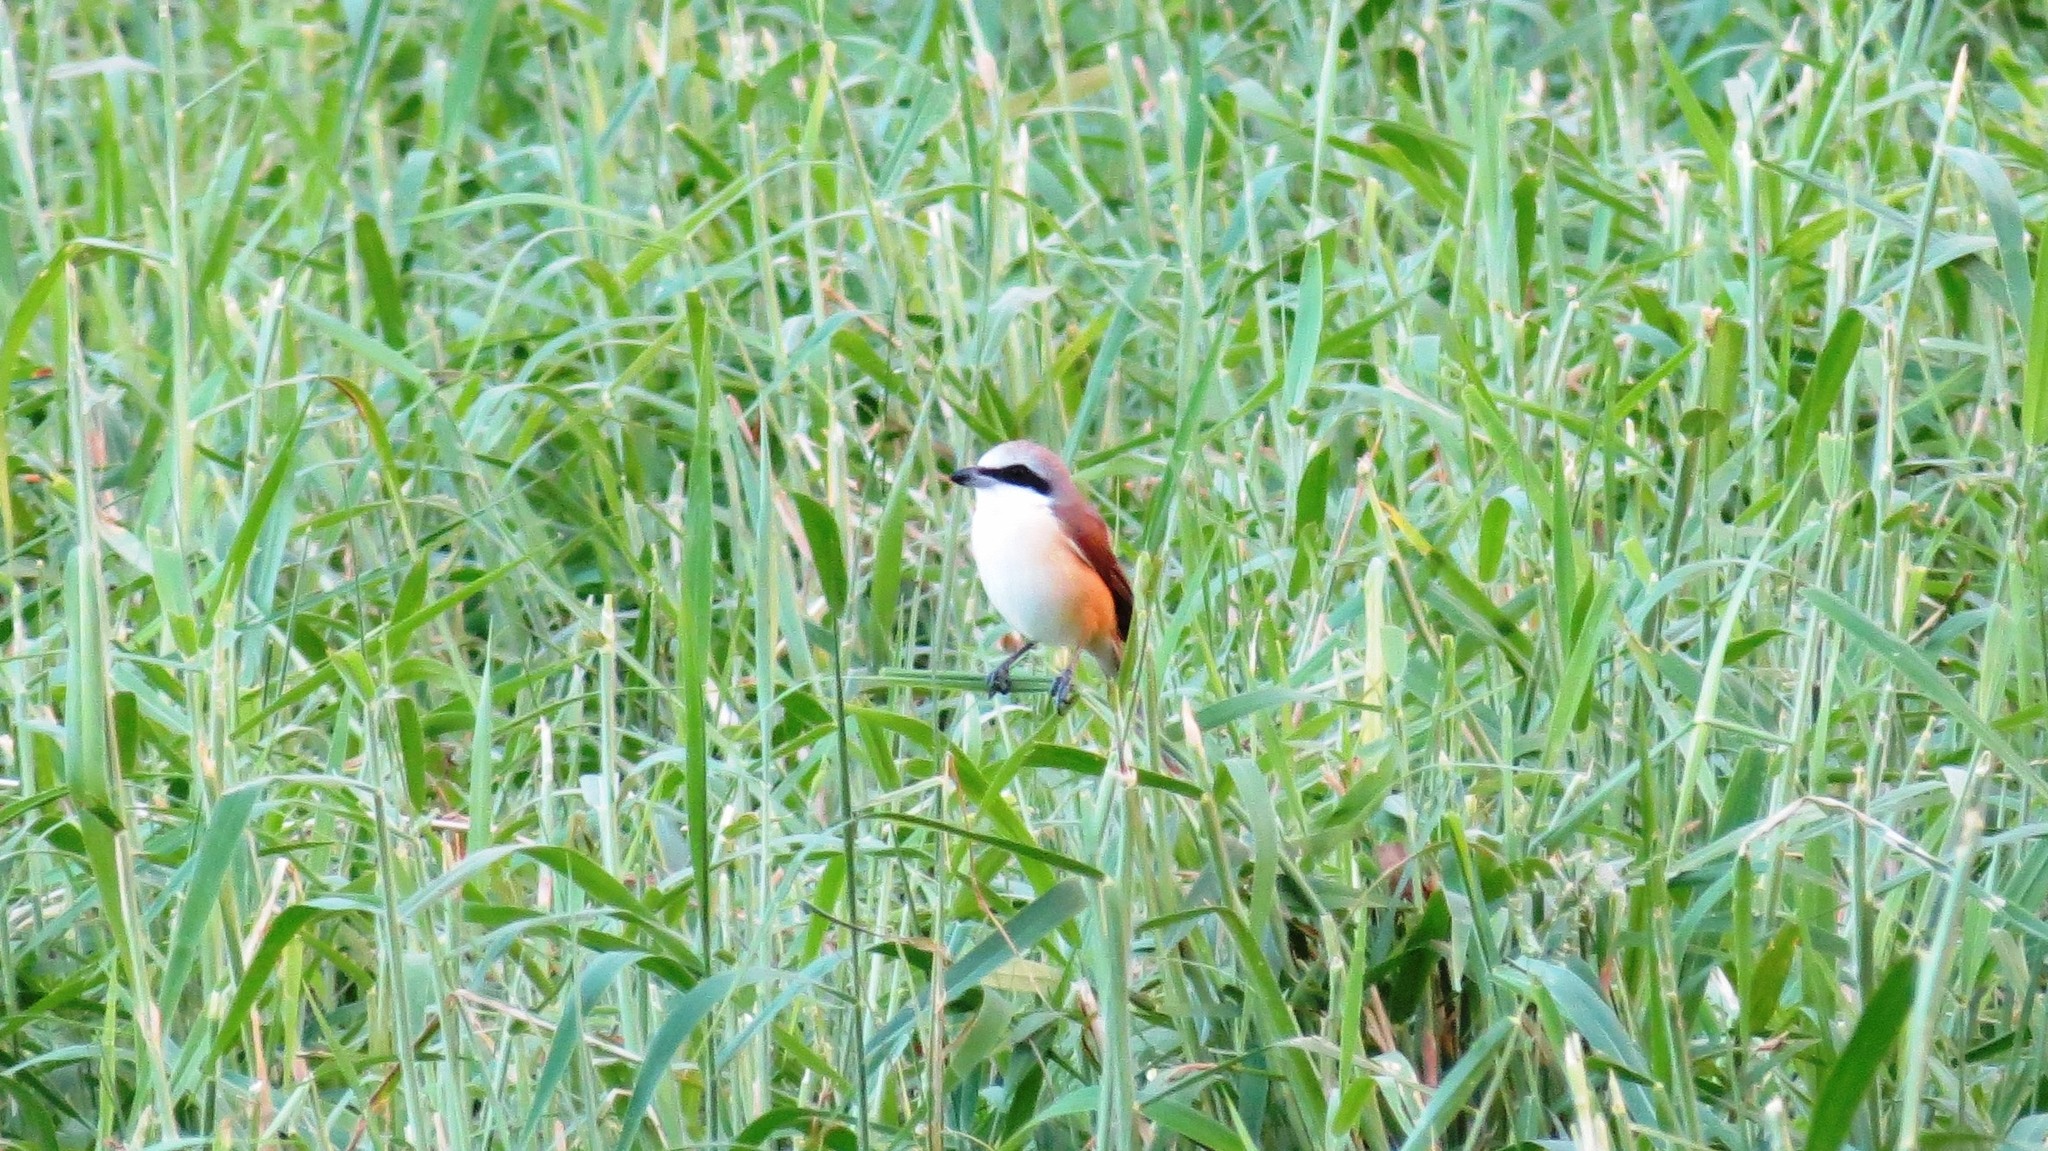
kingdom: Animalia
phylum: Chordata
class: Aves
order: Passeriformes
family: Laniidae
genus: Lanius
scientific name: Lanius cristatus
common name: Brown shrike
